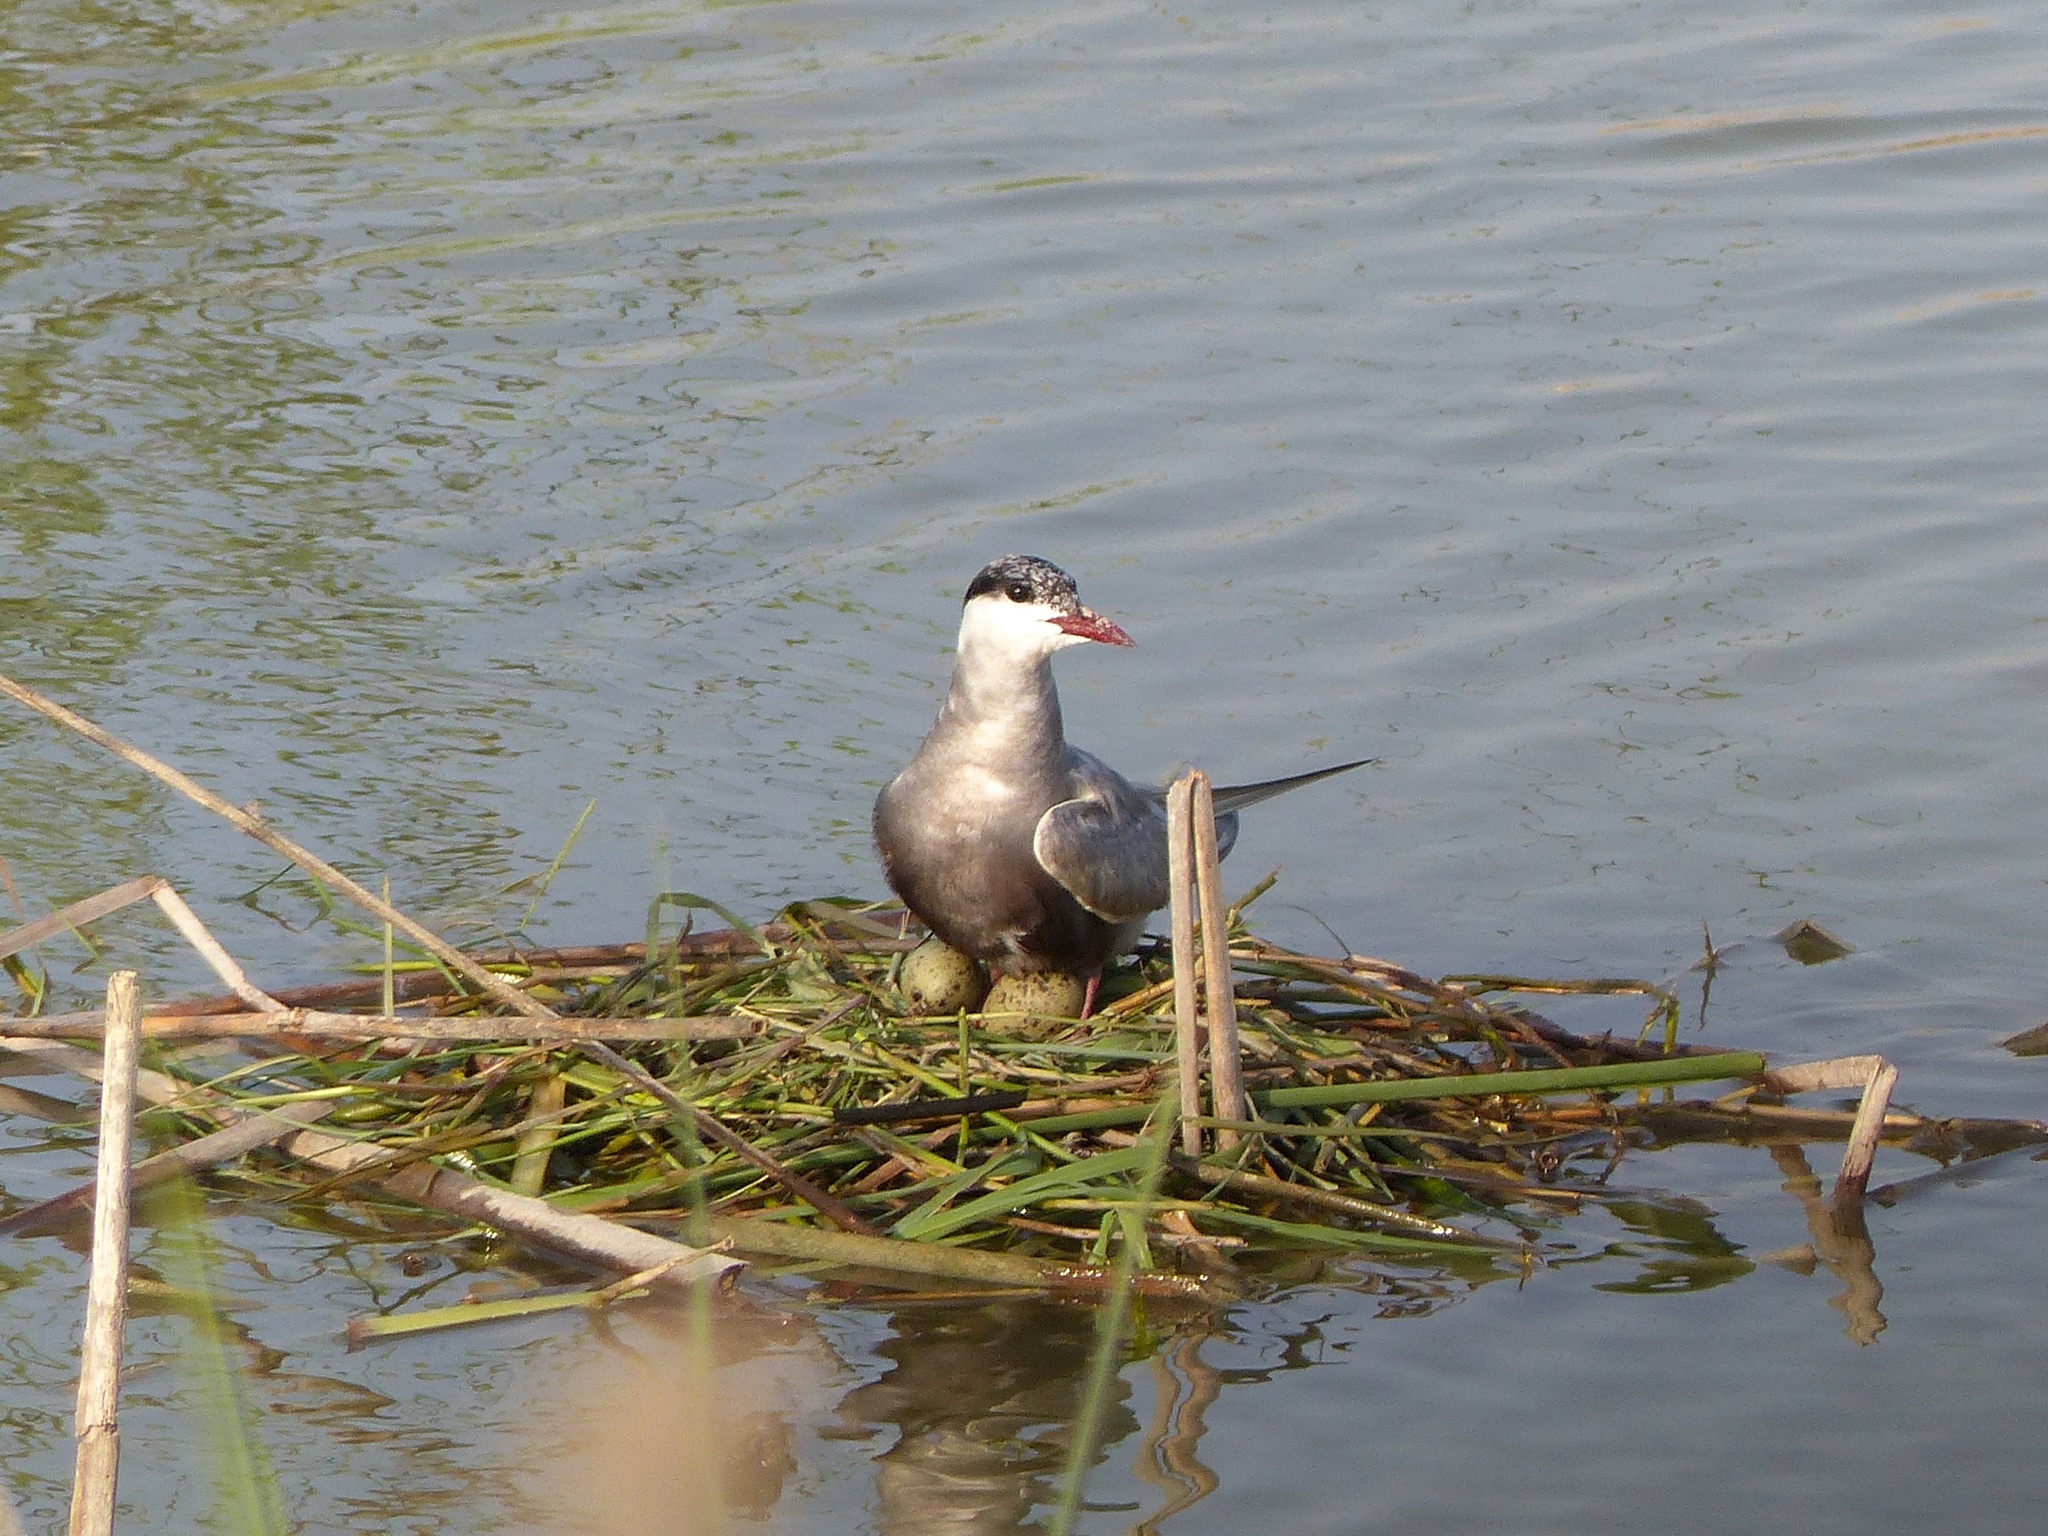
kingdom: Animalia
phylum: Chordata
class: Aves
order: Charadriiformes
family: Laridae
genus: Chlidonias
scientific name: Chlidonias hybrida
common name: Whiskered tern
